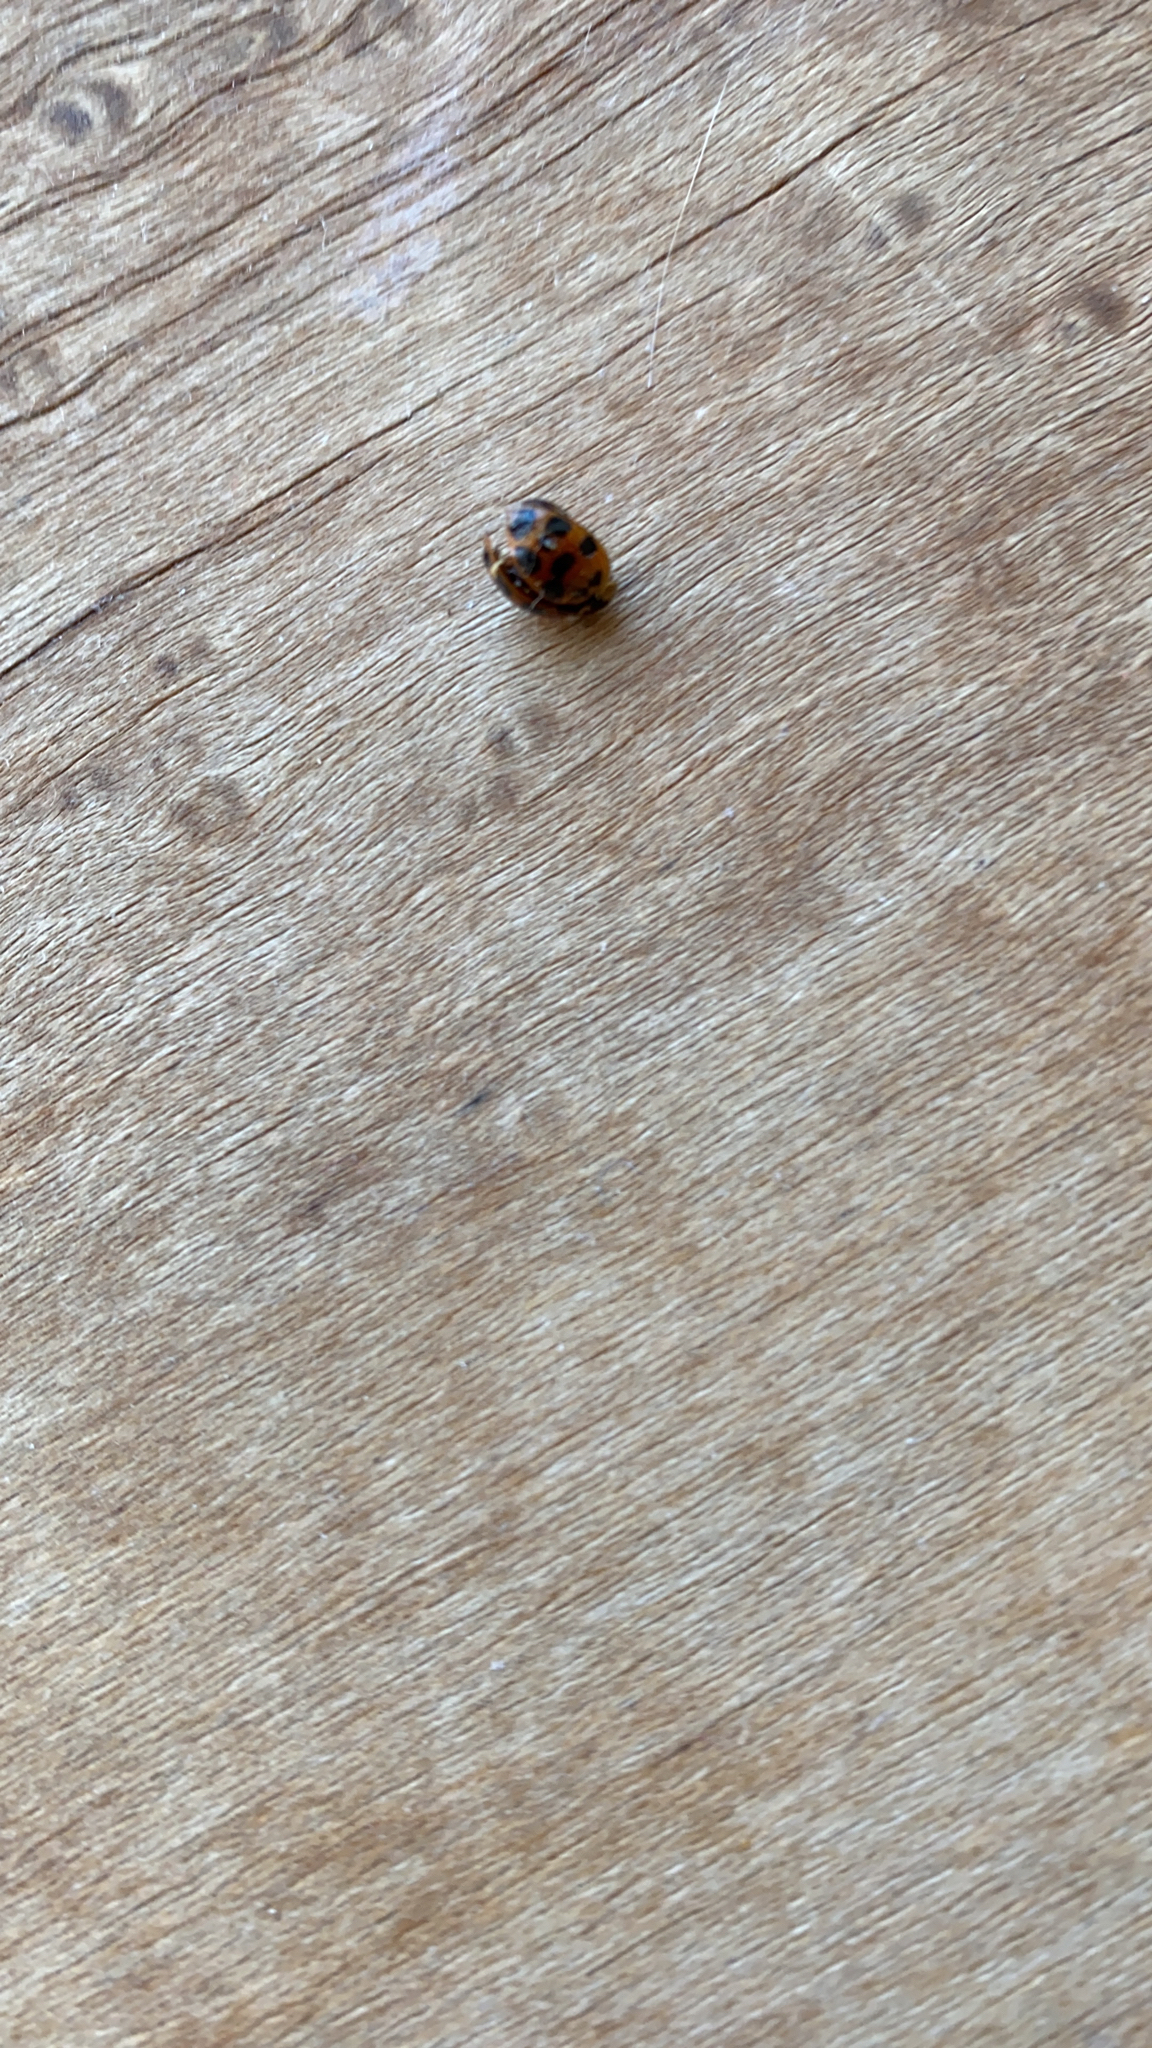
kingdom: Animalia
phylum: Arthropoda
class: Insecta
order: Coleoptera
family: Coccinellidae
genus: Harmonia
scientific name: Harmonia axyridis
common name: Harlequin ladybird
